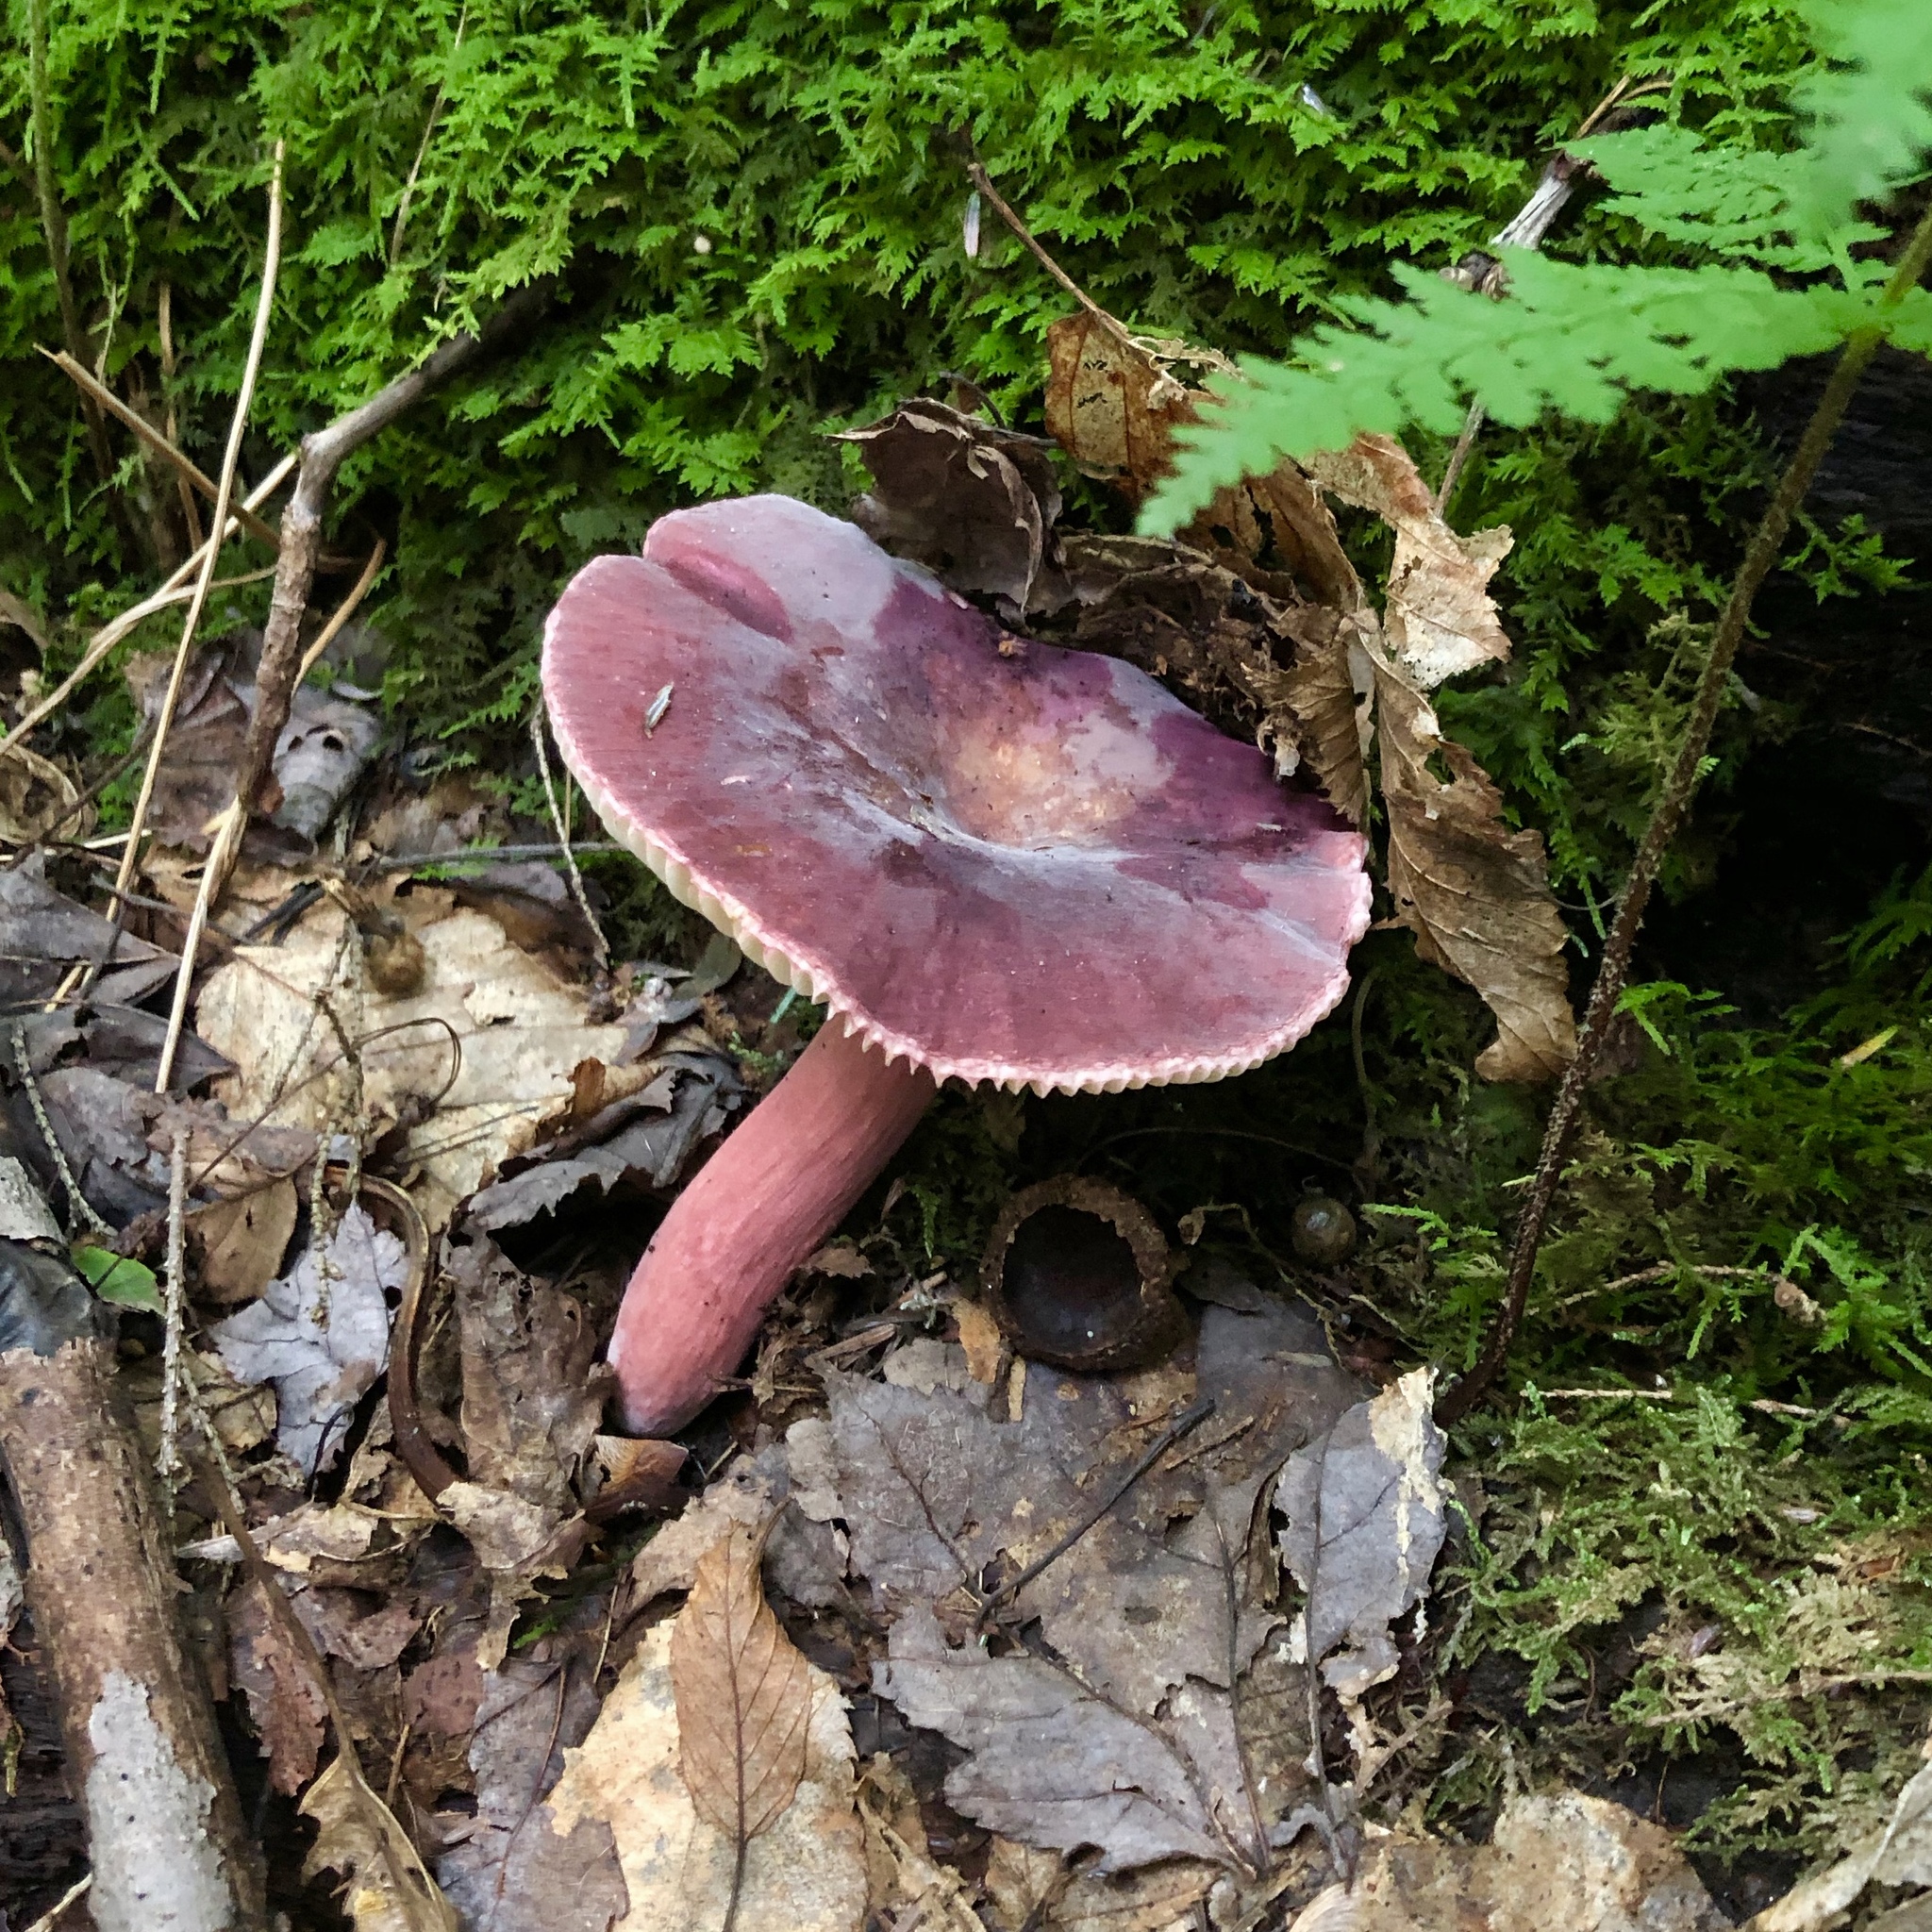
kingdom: Fungi
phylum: Basidiomycota
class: Agaricomycetes
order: Russulales
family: Russulaceae
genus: Russula
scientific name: Russula mariae
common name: Purple-bloom russula
